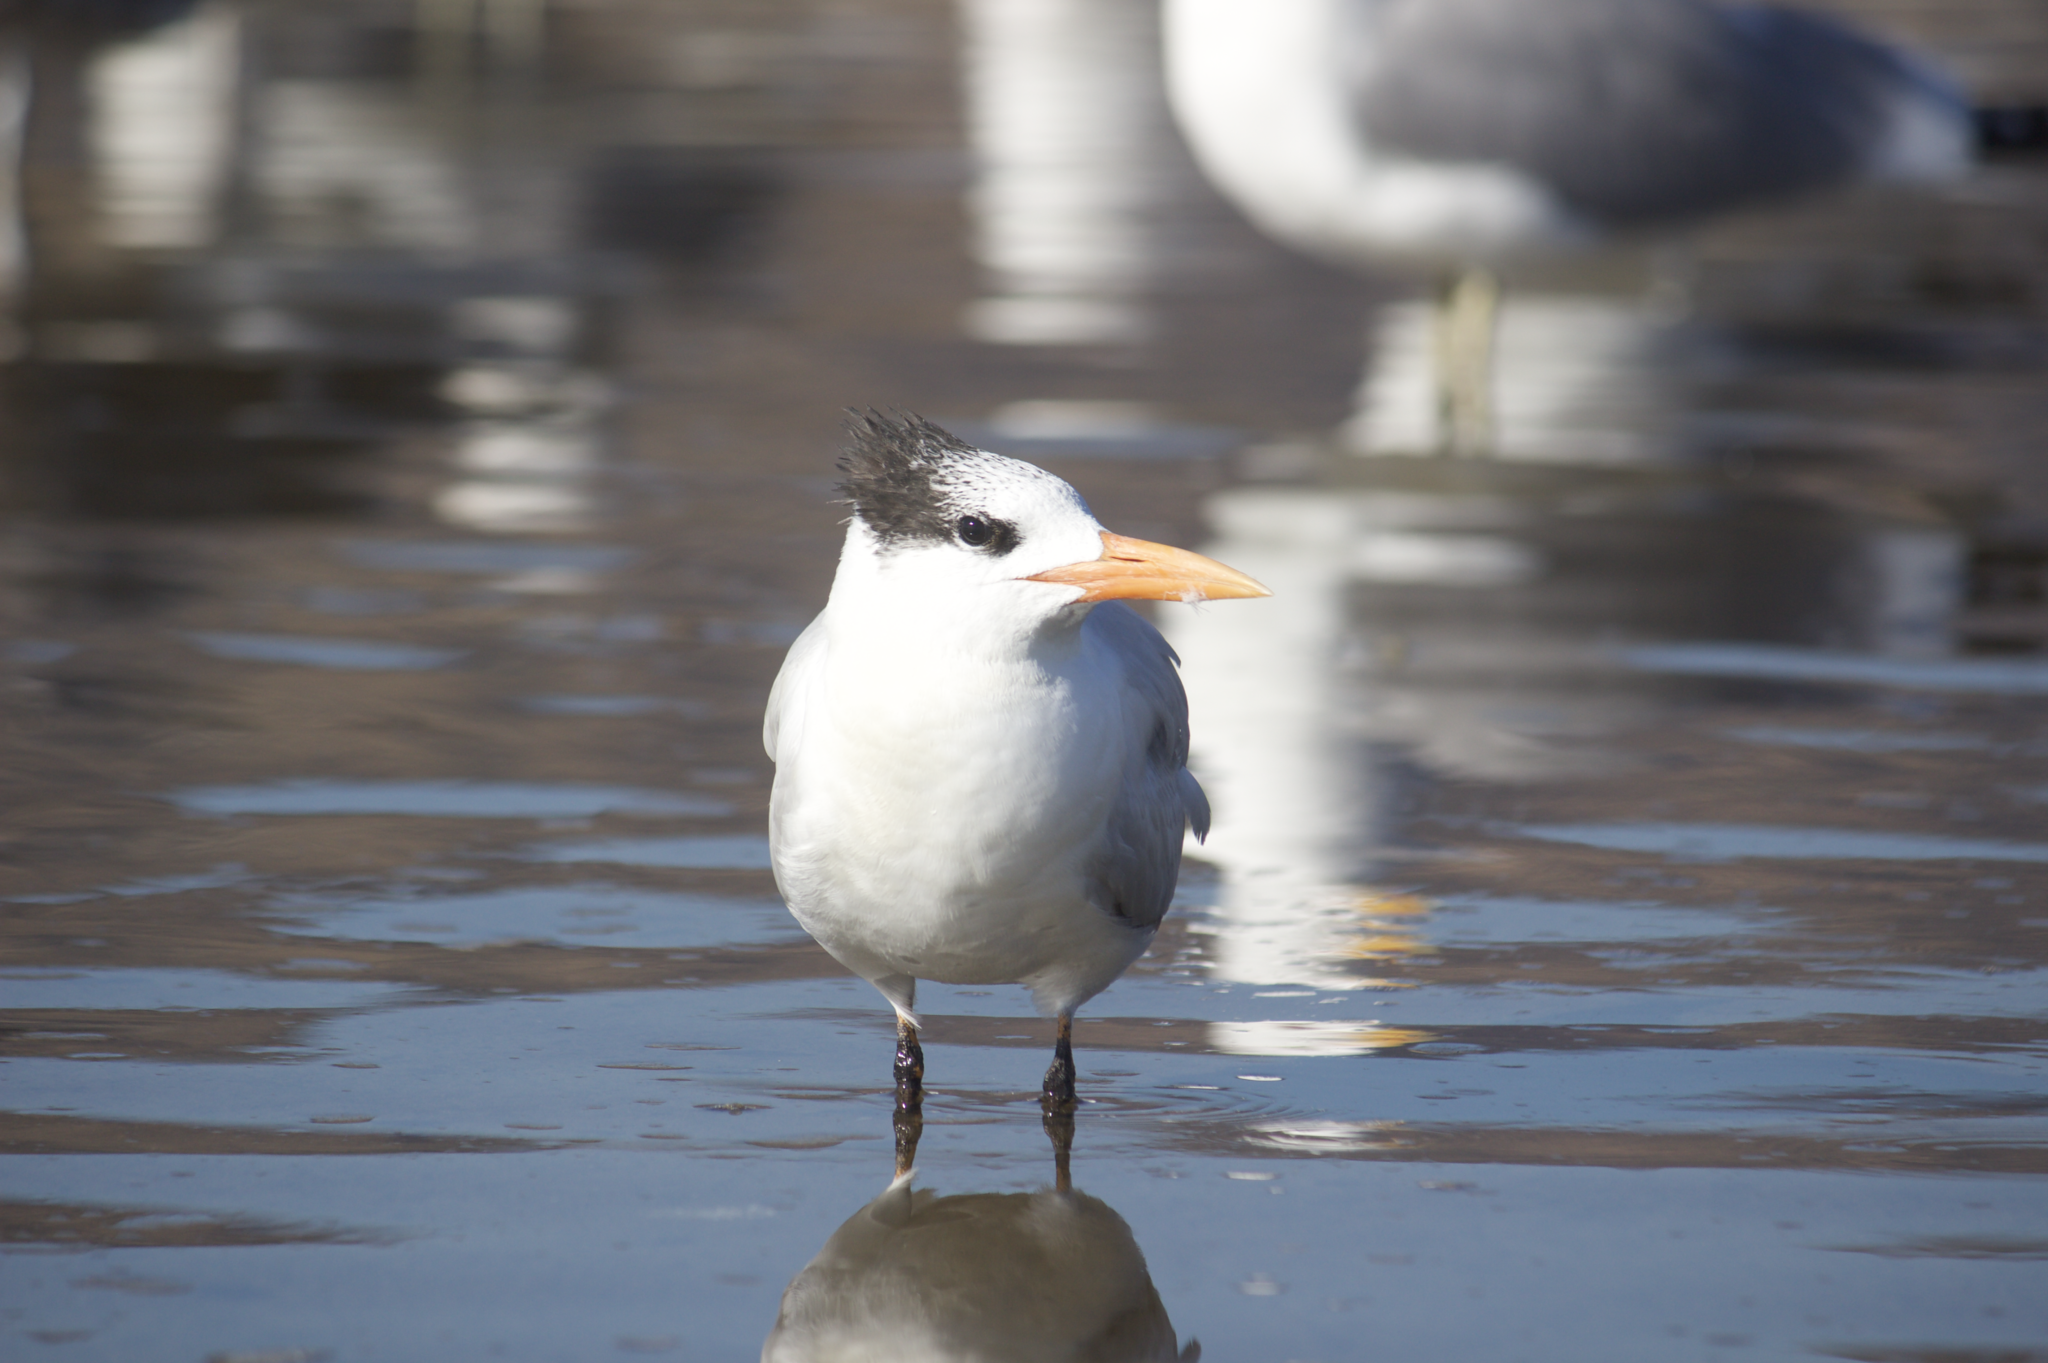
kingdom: Animalia
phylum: Chordata
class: Aves
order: Charadriiformes
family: Laridae
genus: Thalasseus
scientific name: Thalasseus maximus
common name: Royal tern
